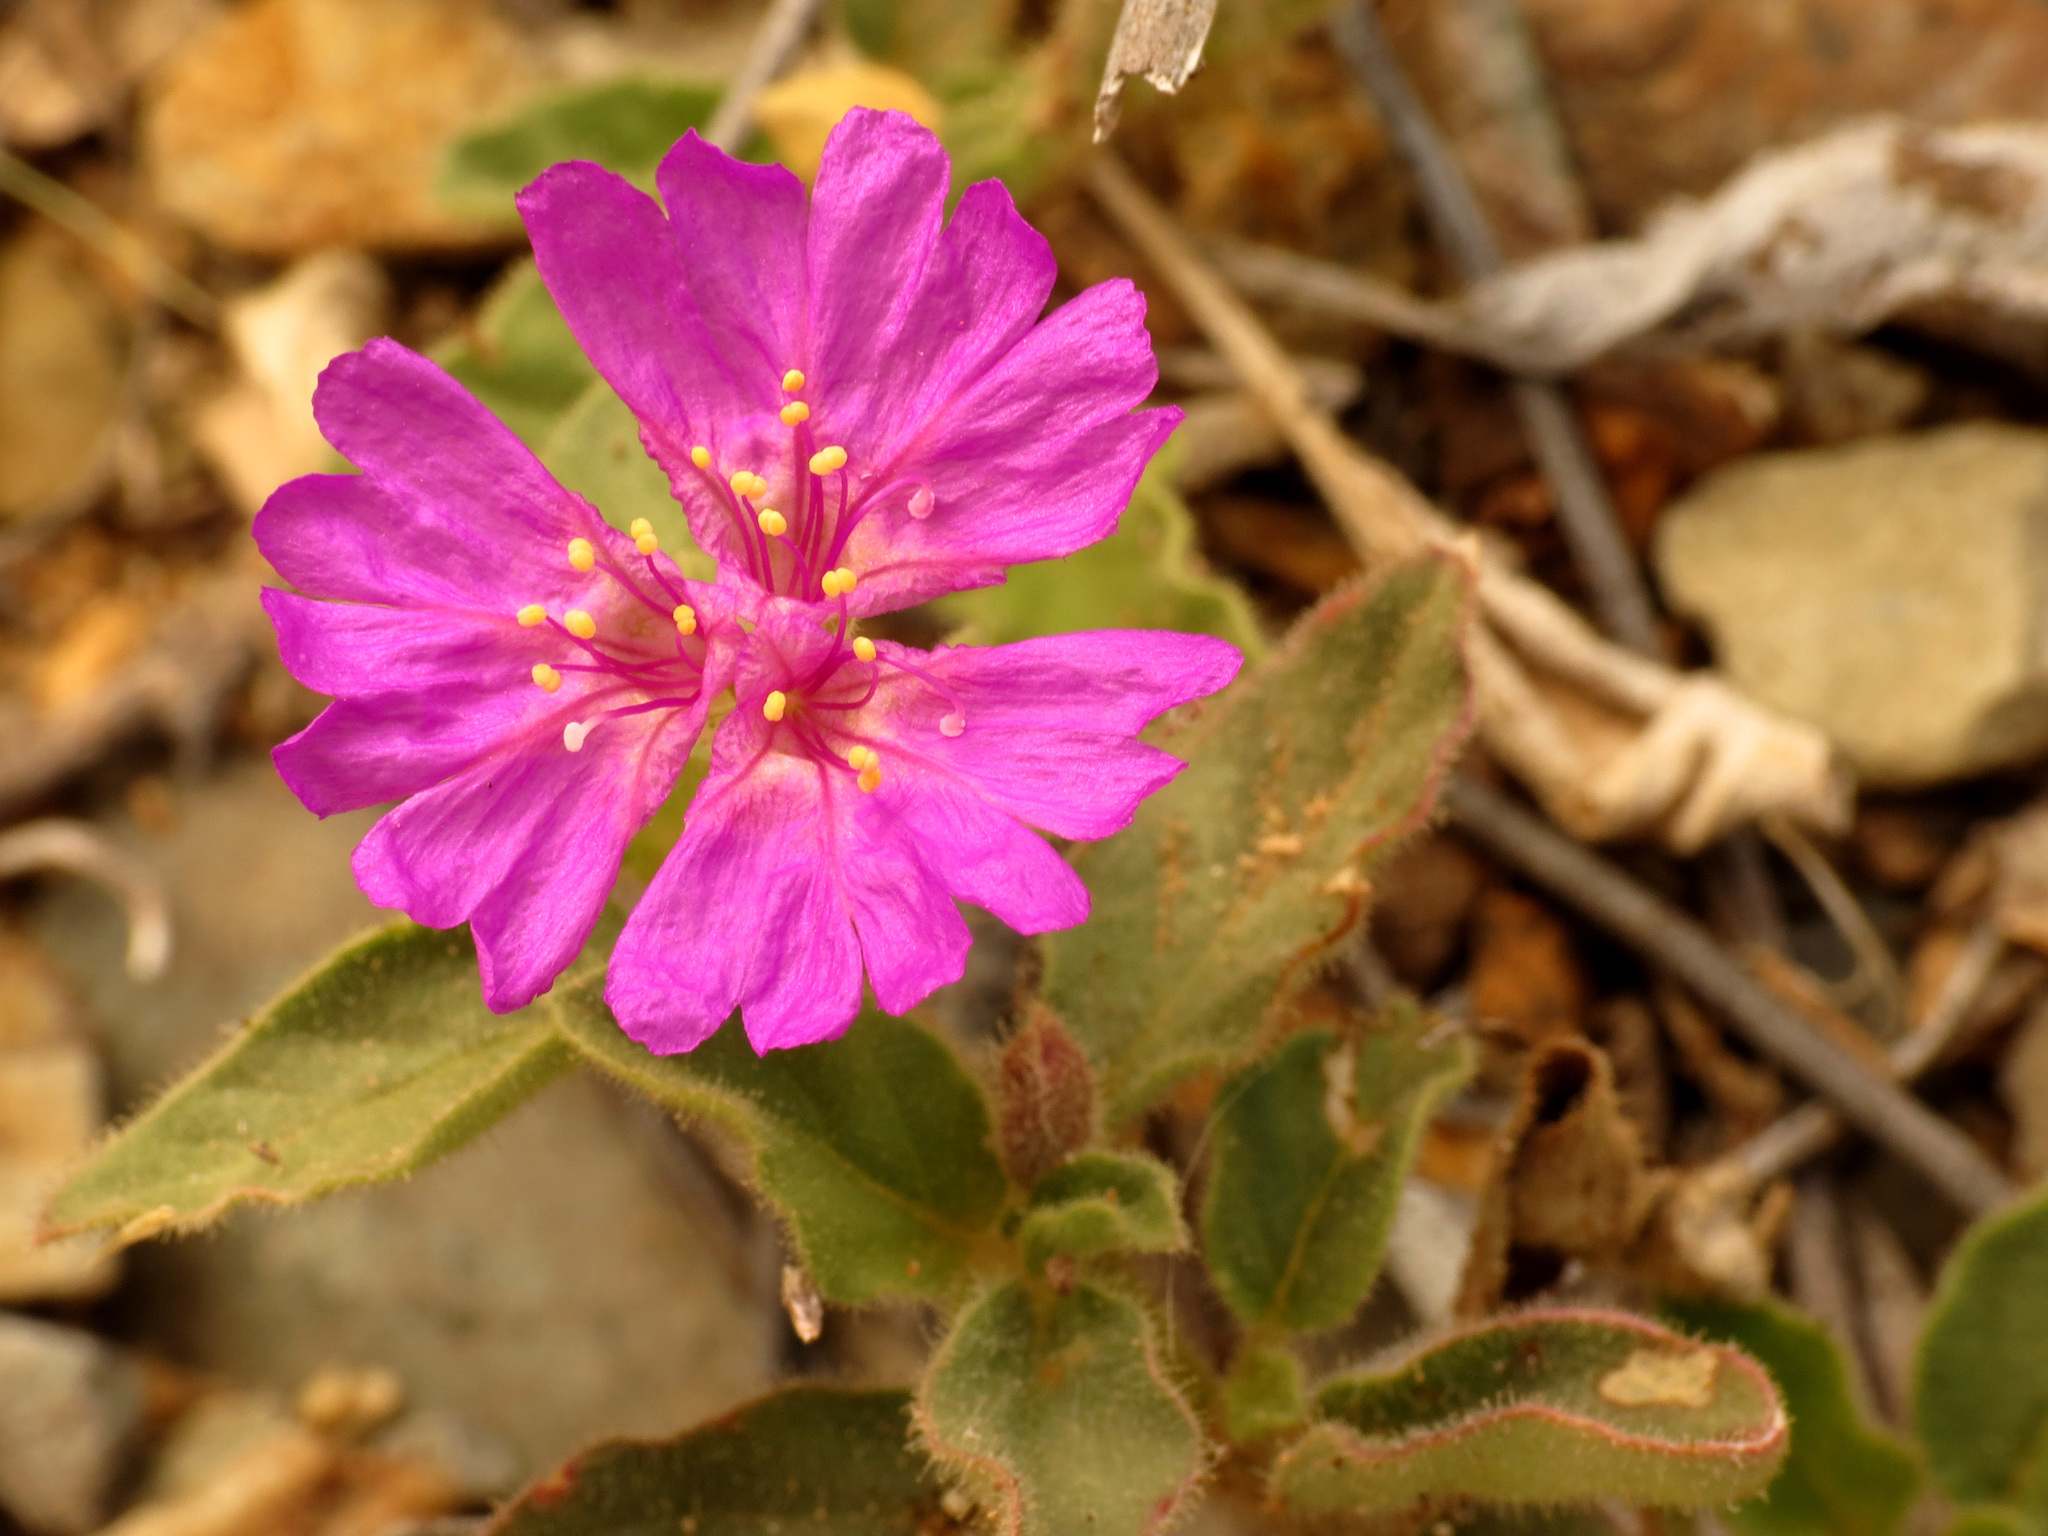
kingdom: Plantae
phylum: Tracheophyta
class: Magnoliopsida
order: Caryophyllales
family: Nyctaginaceae
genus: Allionia
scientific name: Allionia incarnata
